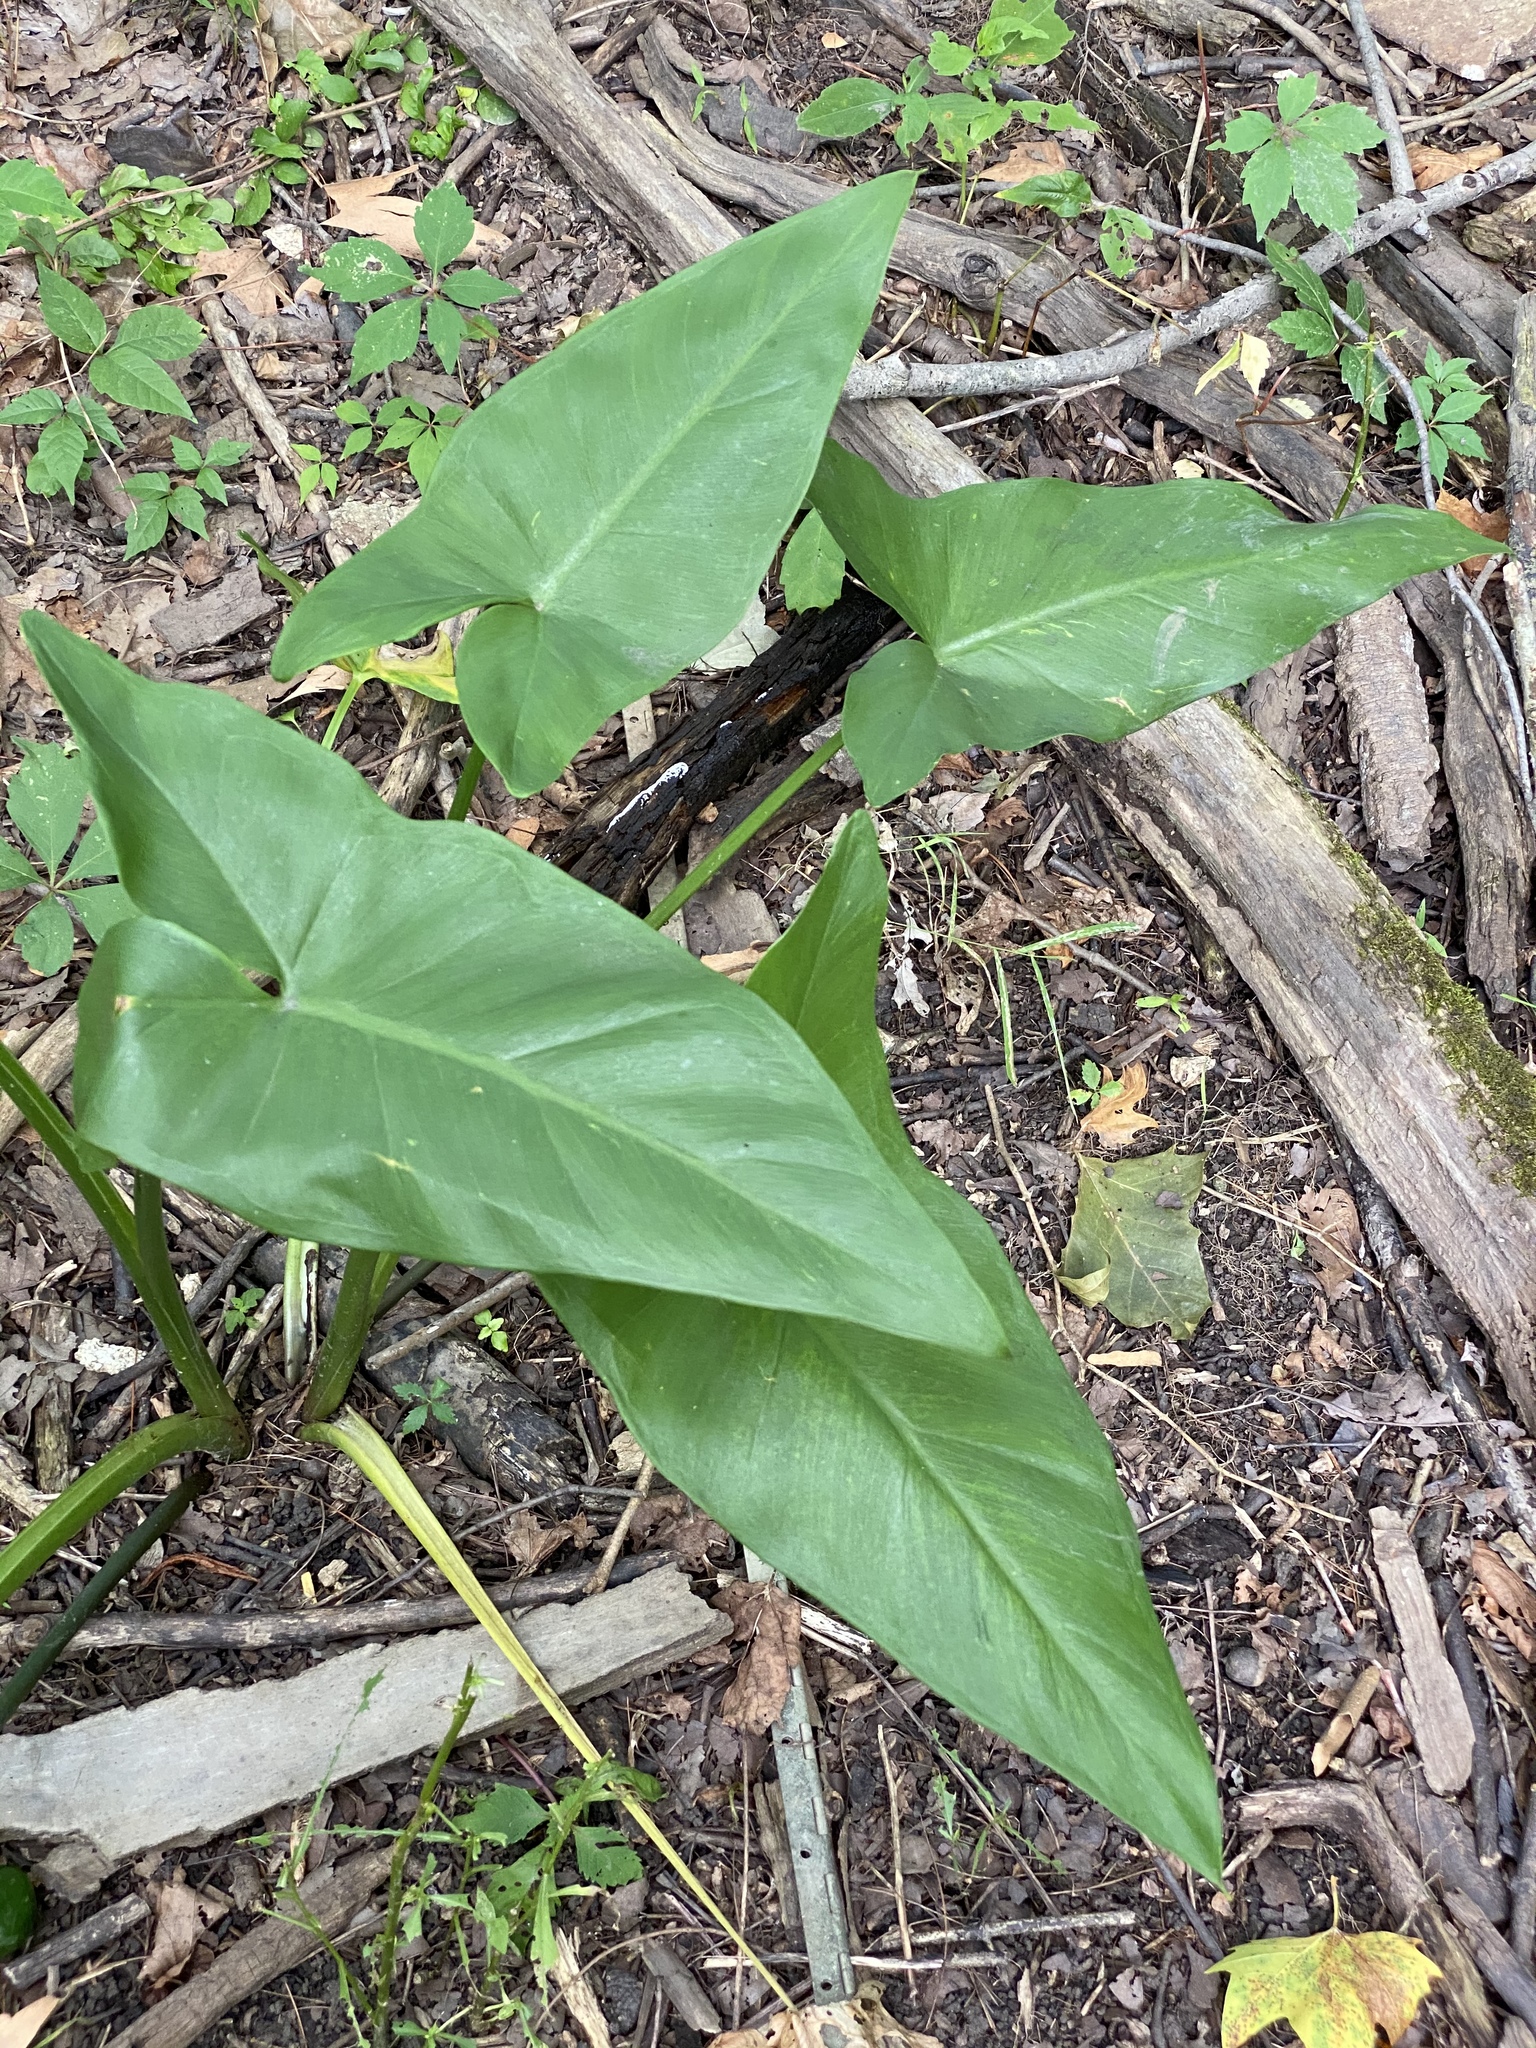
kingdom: Plantae
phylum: Tracheophyta
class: Liliopsida
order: Alismatales
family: Araceae
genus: Peltandra
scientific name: Peltandra virginica
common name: Arrow arum
